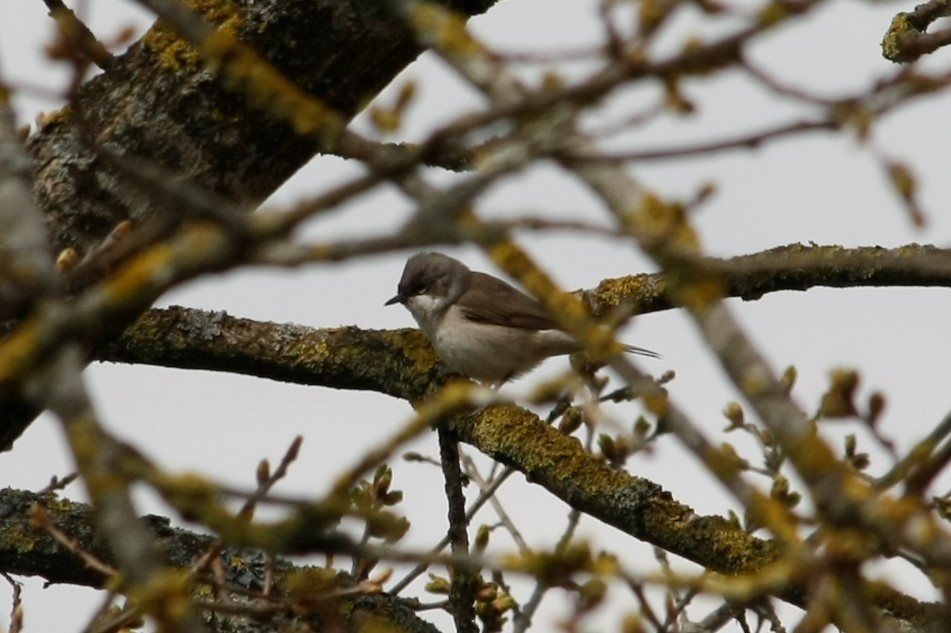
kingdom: Animalia
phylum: Chordata
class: Aves
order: Passeriformes
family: Sylviidae
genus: Sylvia
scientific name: Sylvia curruca
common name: Lesser whitethroat
